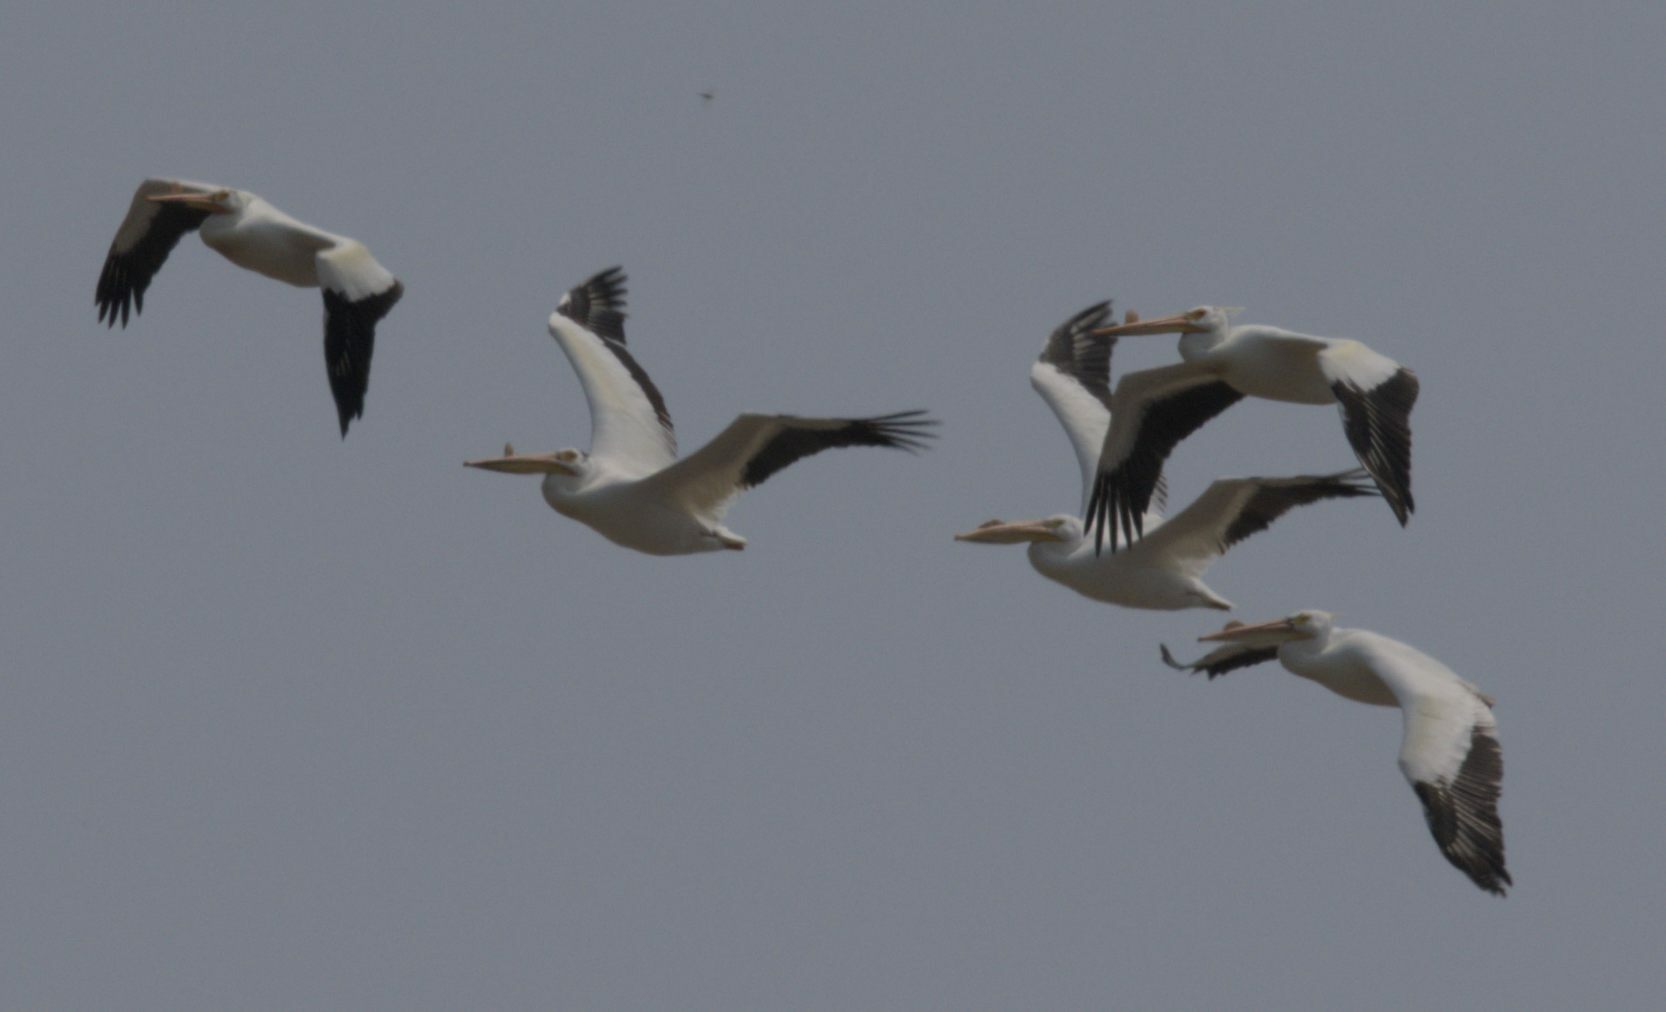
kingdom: Animalia
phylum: Chordata
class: Aves
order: Pelecaniformes
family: Pelecanidae
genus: Pelecanus
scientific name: Pelecanus erythrorhynchos
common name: American white pelican
